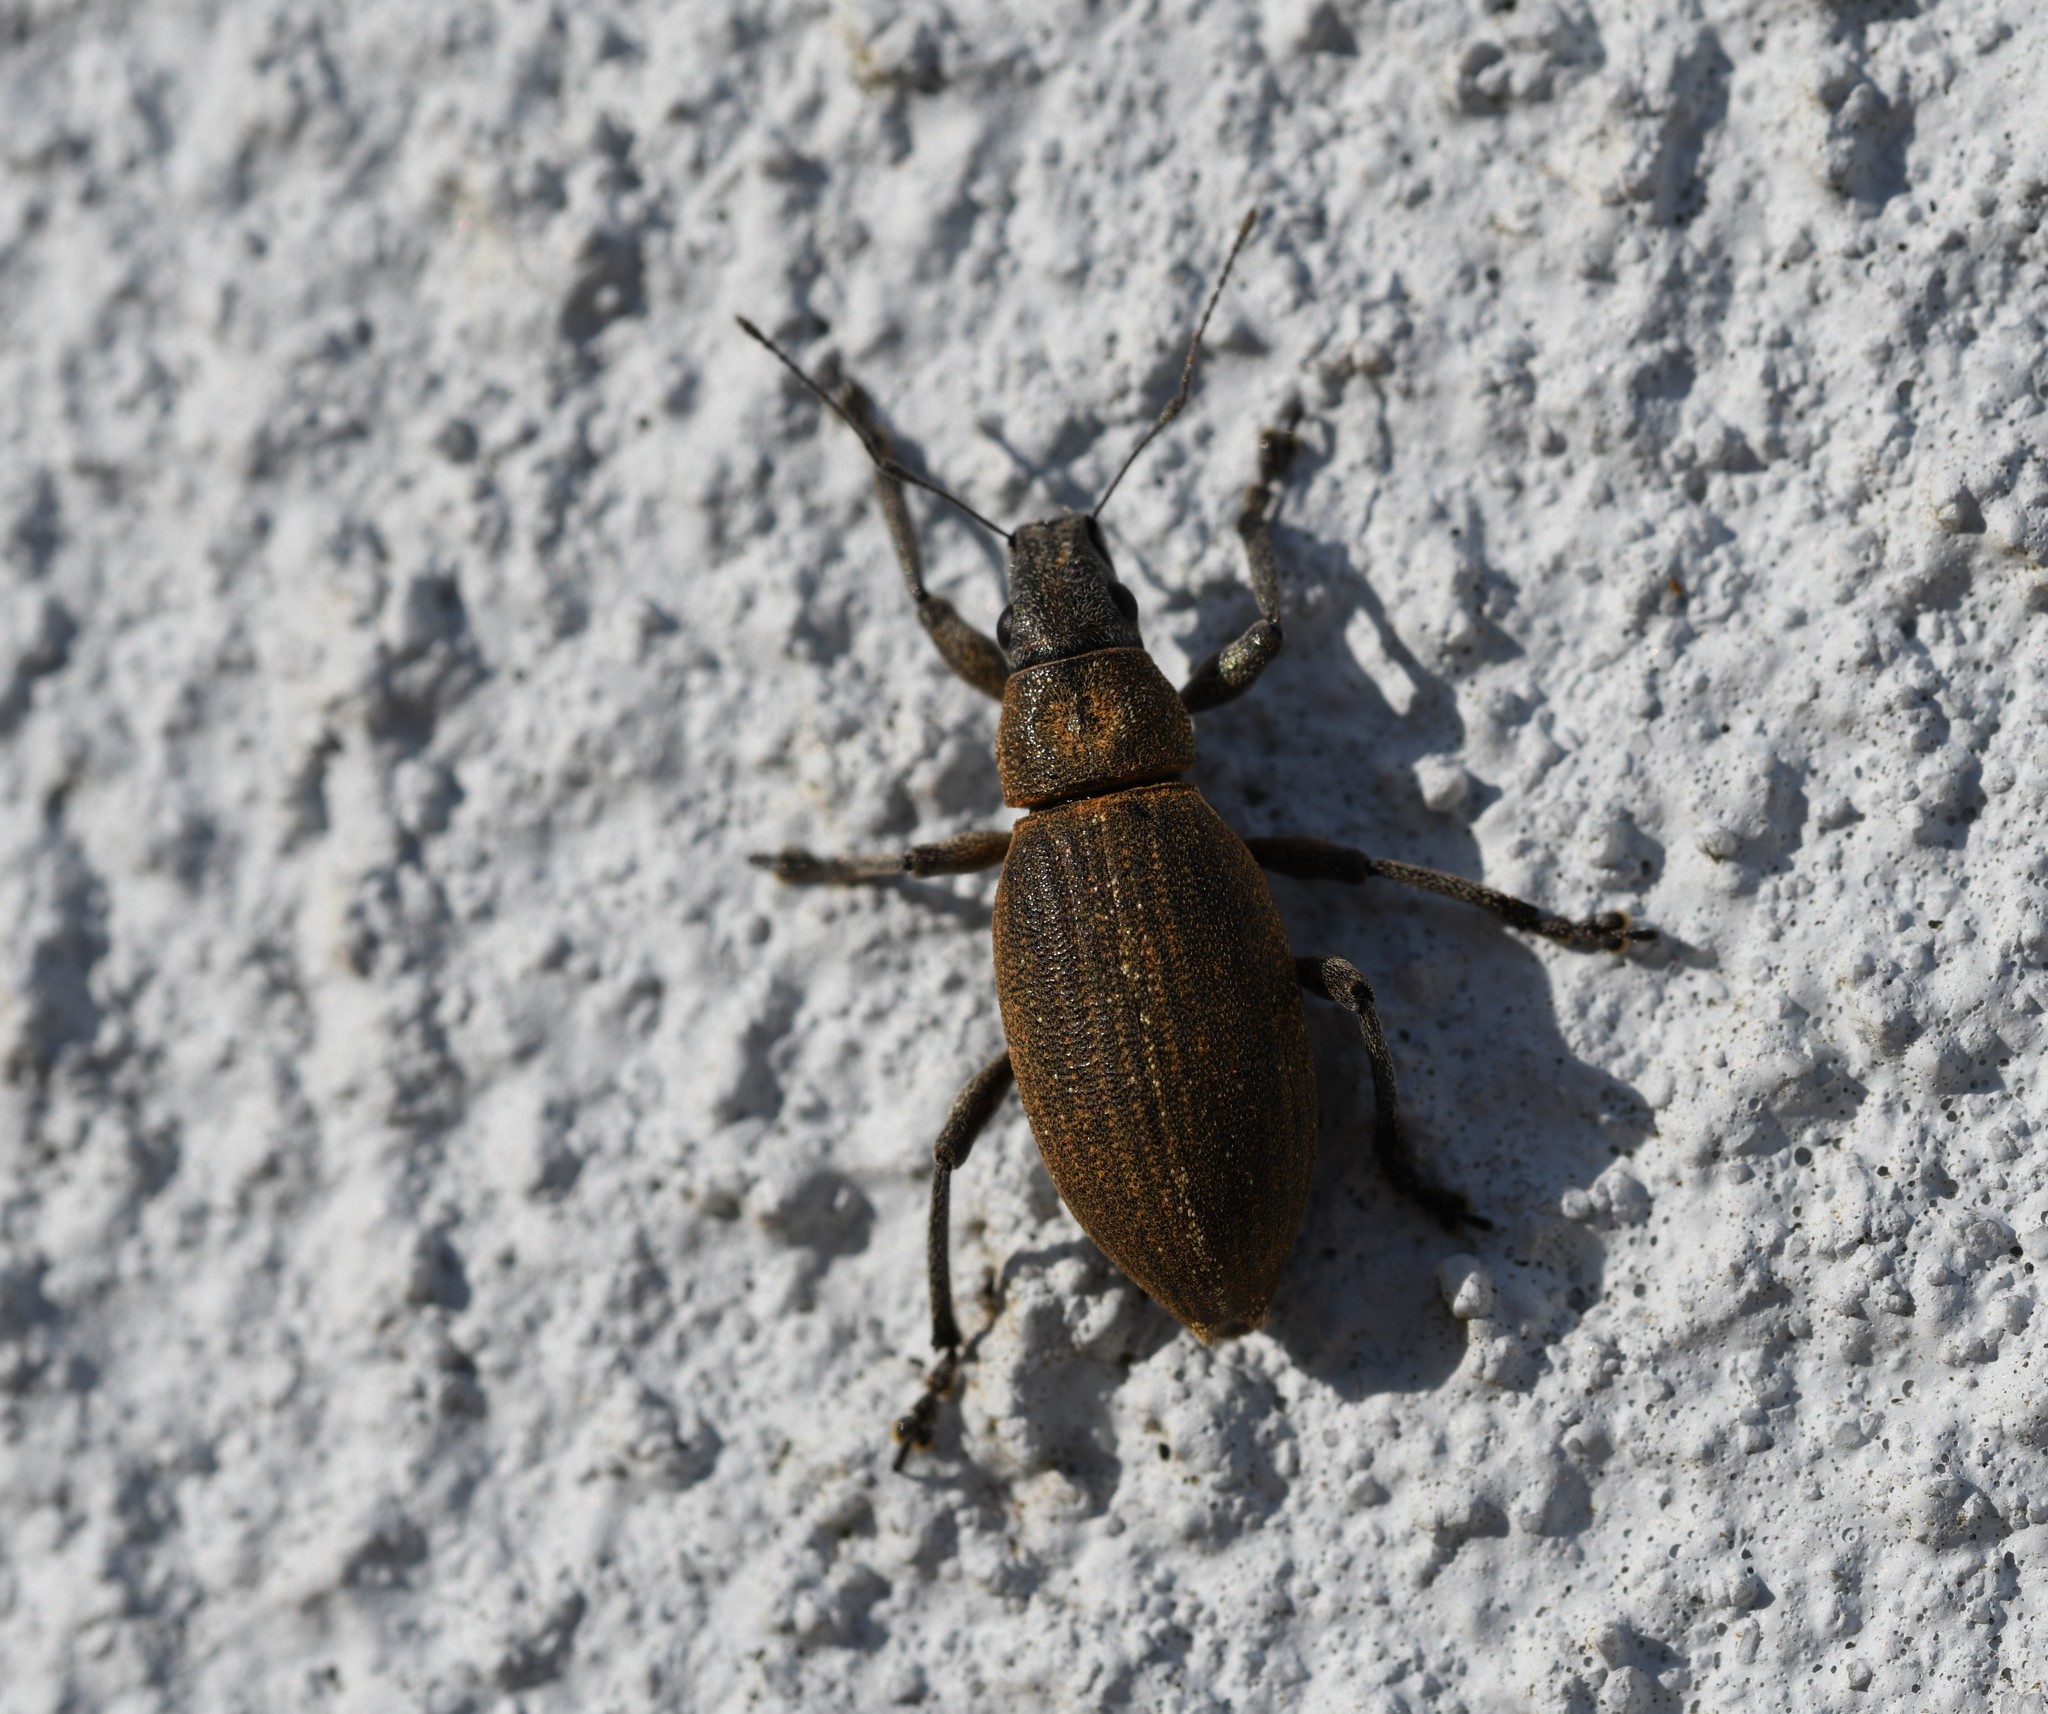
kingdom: Animalia
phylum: Arthropoda
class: Insecta
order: Coleoptera
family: Curculionidae
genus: Brachyderes
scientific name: Brachyderes lusitanicus
